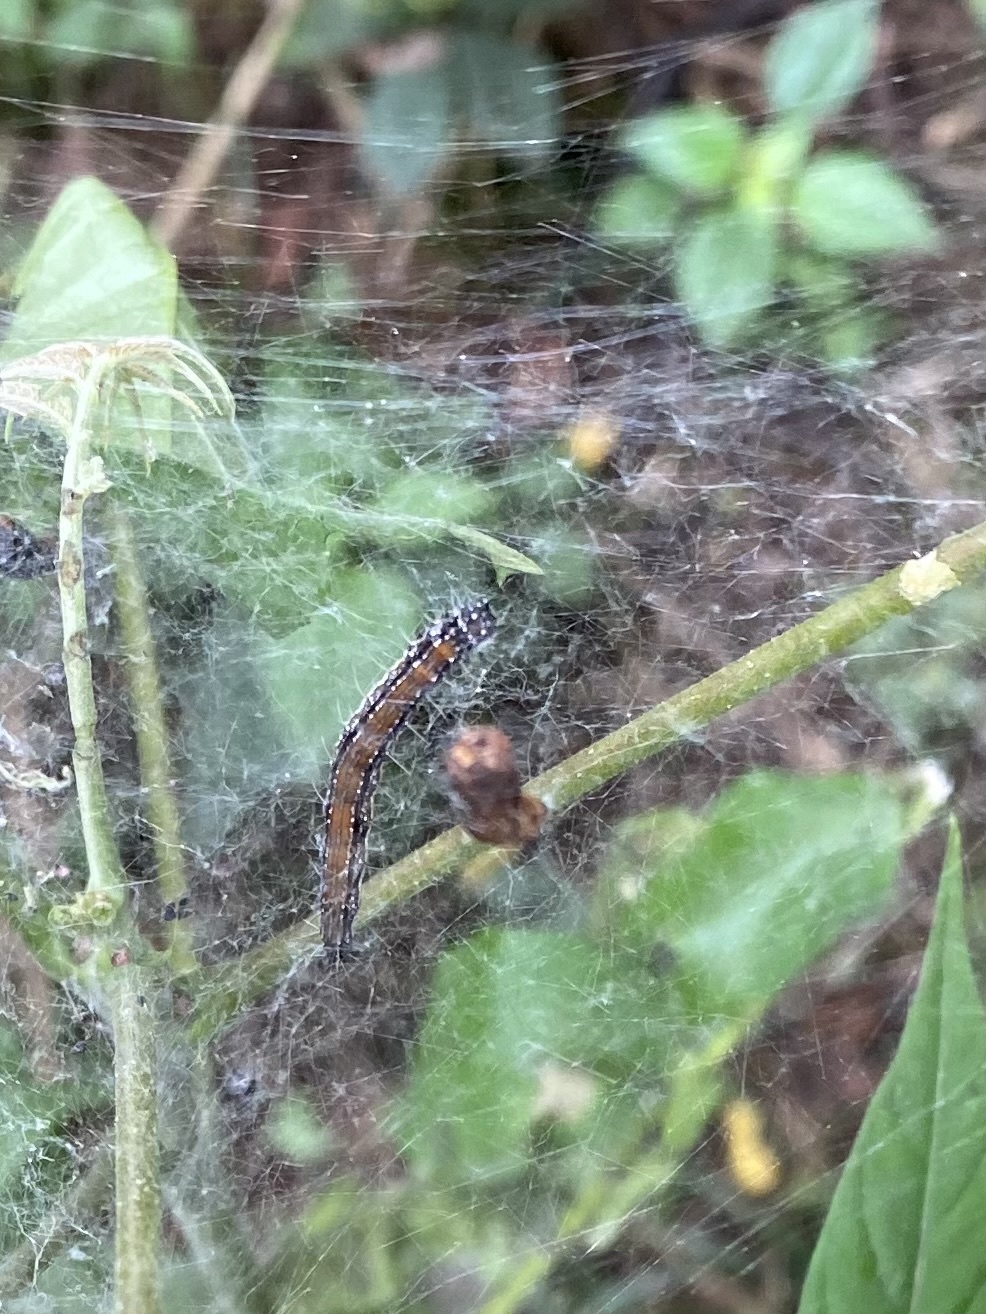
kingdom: Animalia
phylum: Arthropoda
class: Insecta
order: Lepidoptera
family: Attevidae
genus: Atteva
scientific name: Atteva punctella
